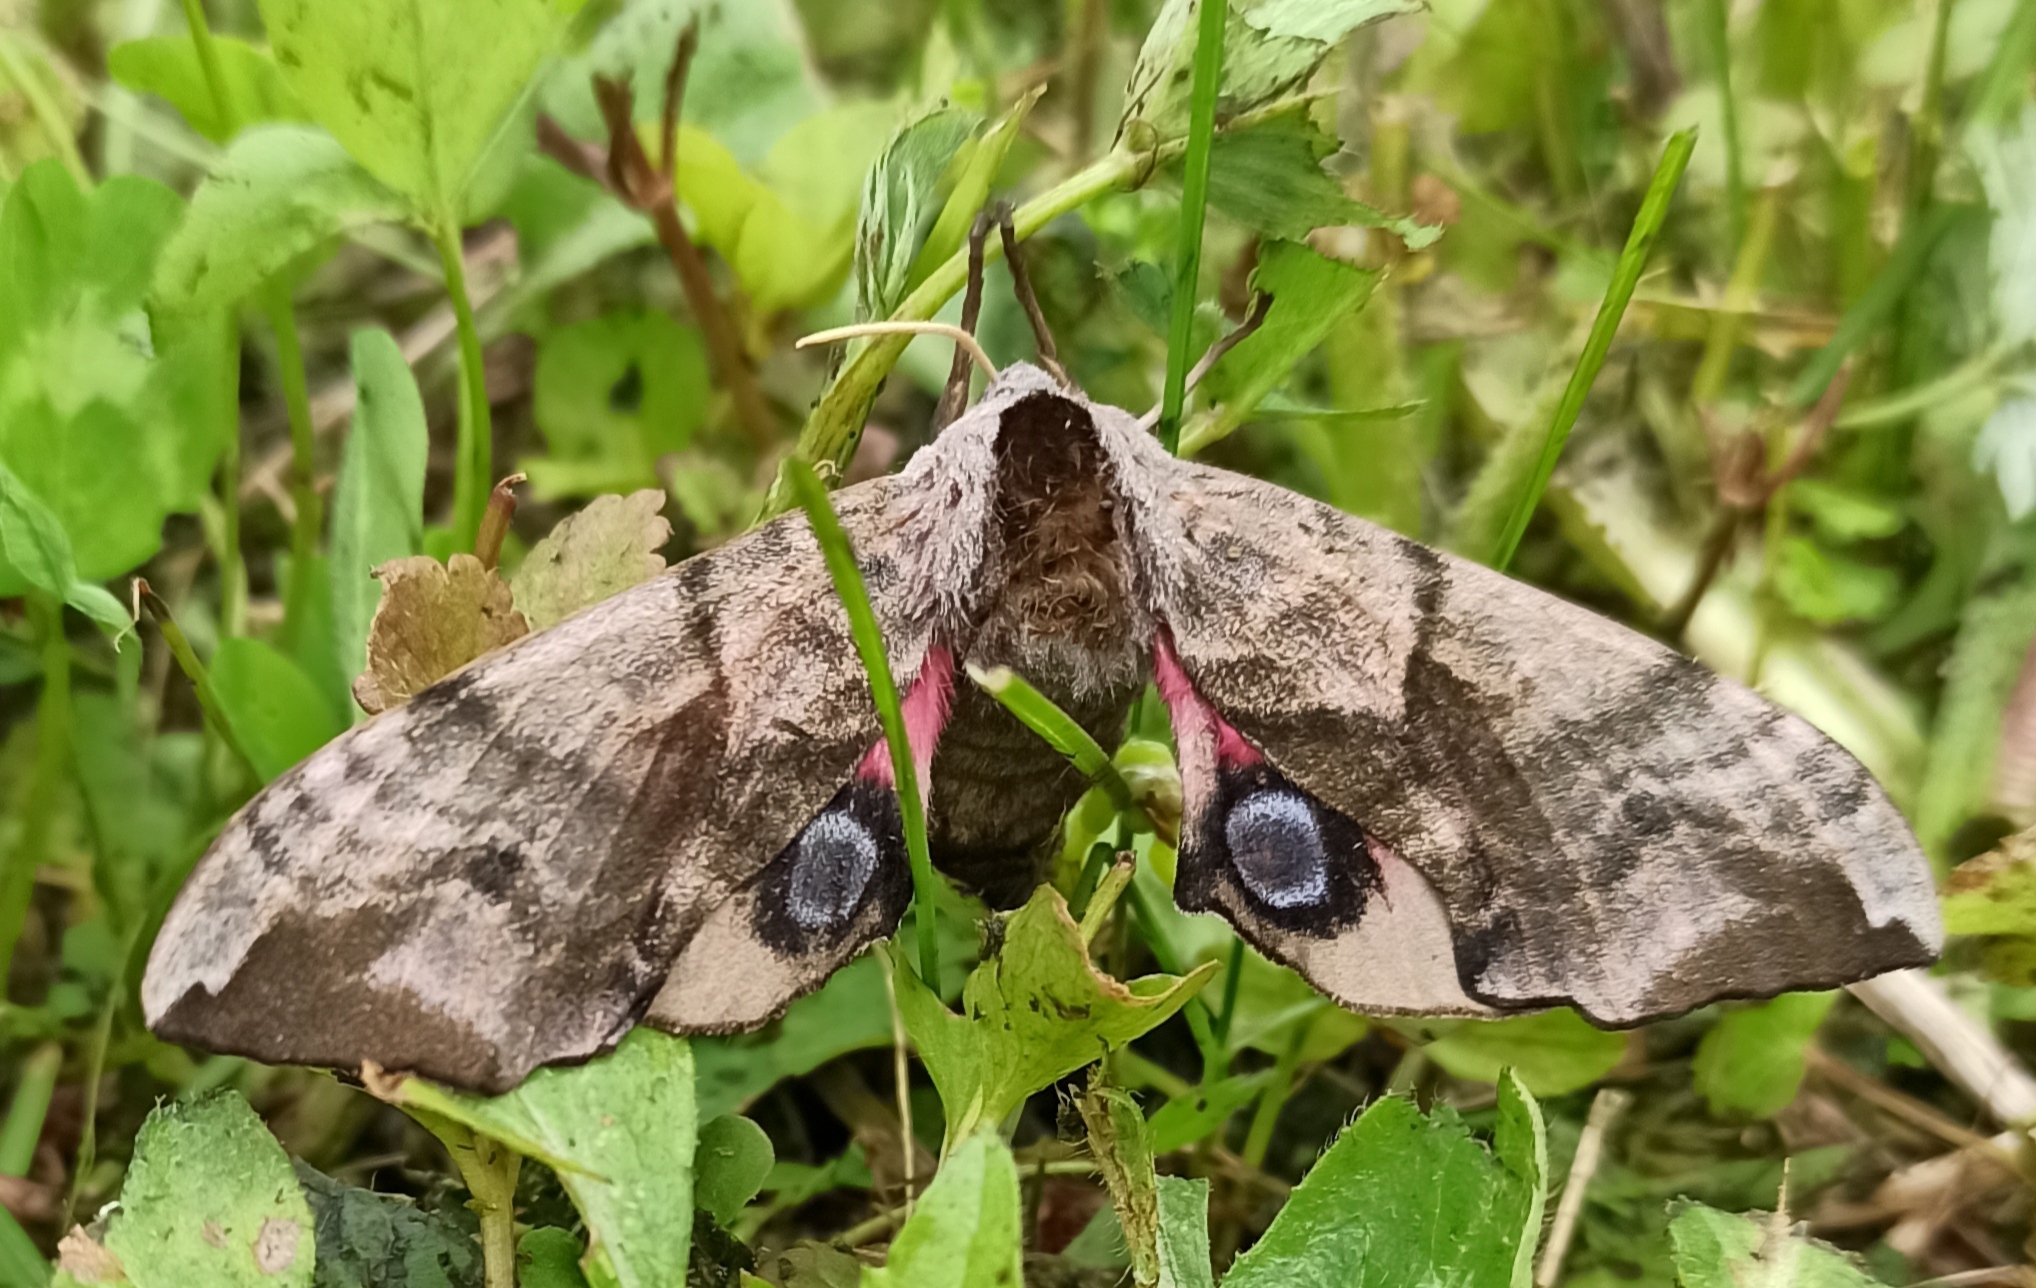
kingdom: Animalia
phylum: Arthropoda
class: Insecta
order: Lepidoptera
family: Sphingidae
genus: Smerinthus
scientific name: Smerinthus ocellata
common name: Eyed hawk-moth
